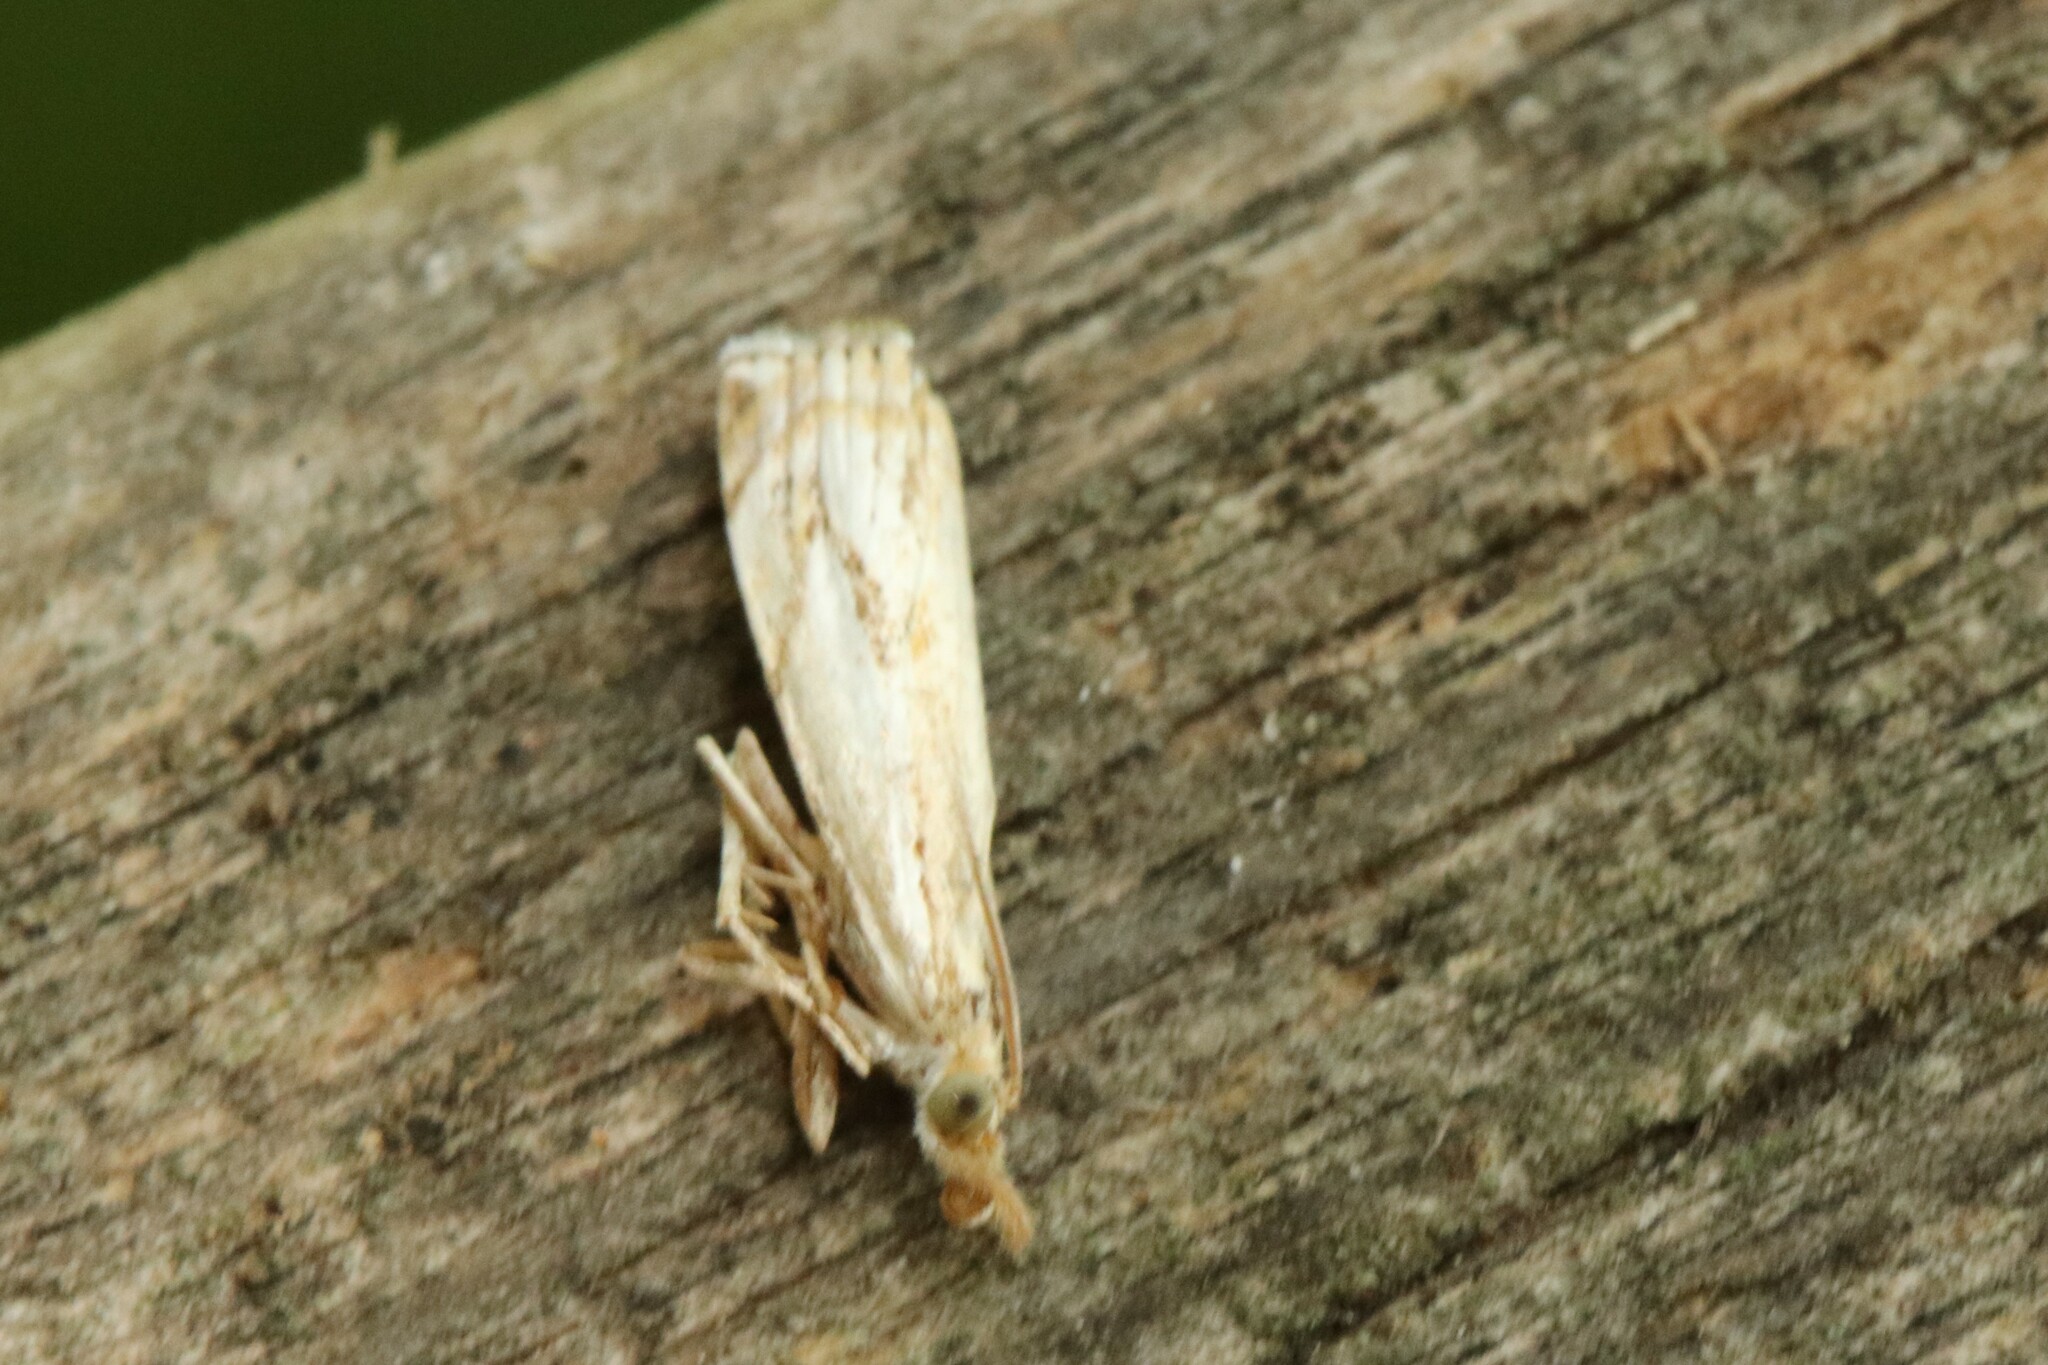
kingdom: Animalia
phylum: Arthropoda
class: Insecta
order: Lepidoptera
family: Crambidae
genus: Crambus
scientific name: Crambus agitatellus
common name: Double-banded grass-veneer
